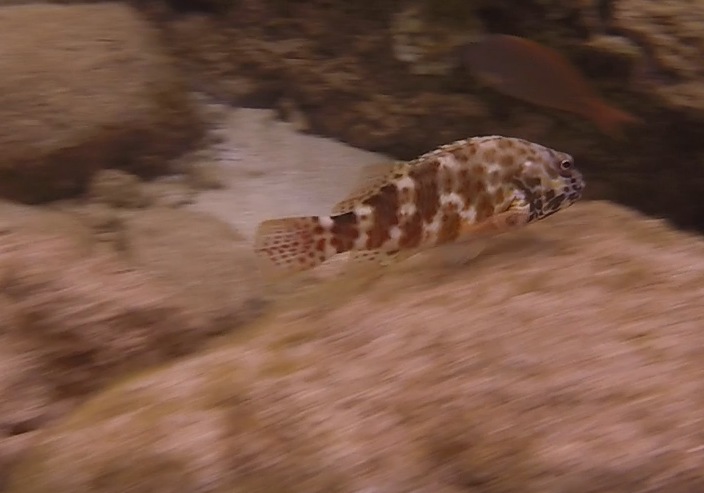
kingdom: Animalia
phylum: Chordata
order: Perciformes
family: Cirrhitidae
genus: Cirrhitus
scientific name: Cirrhitus pinnulatus
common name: Stocky hawkfish
